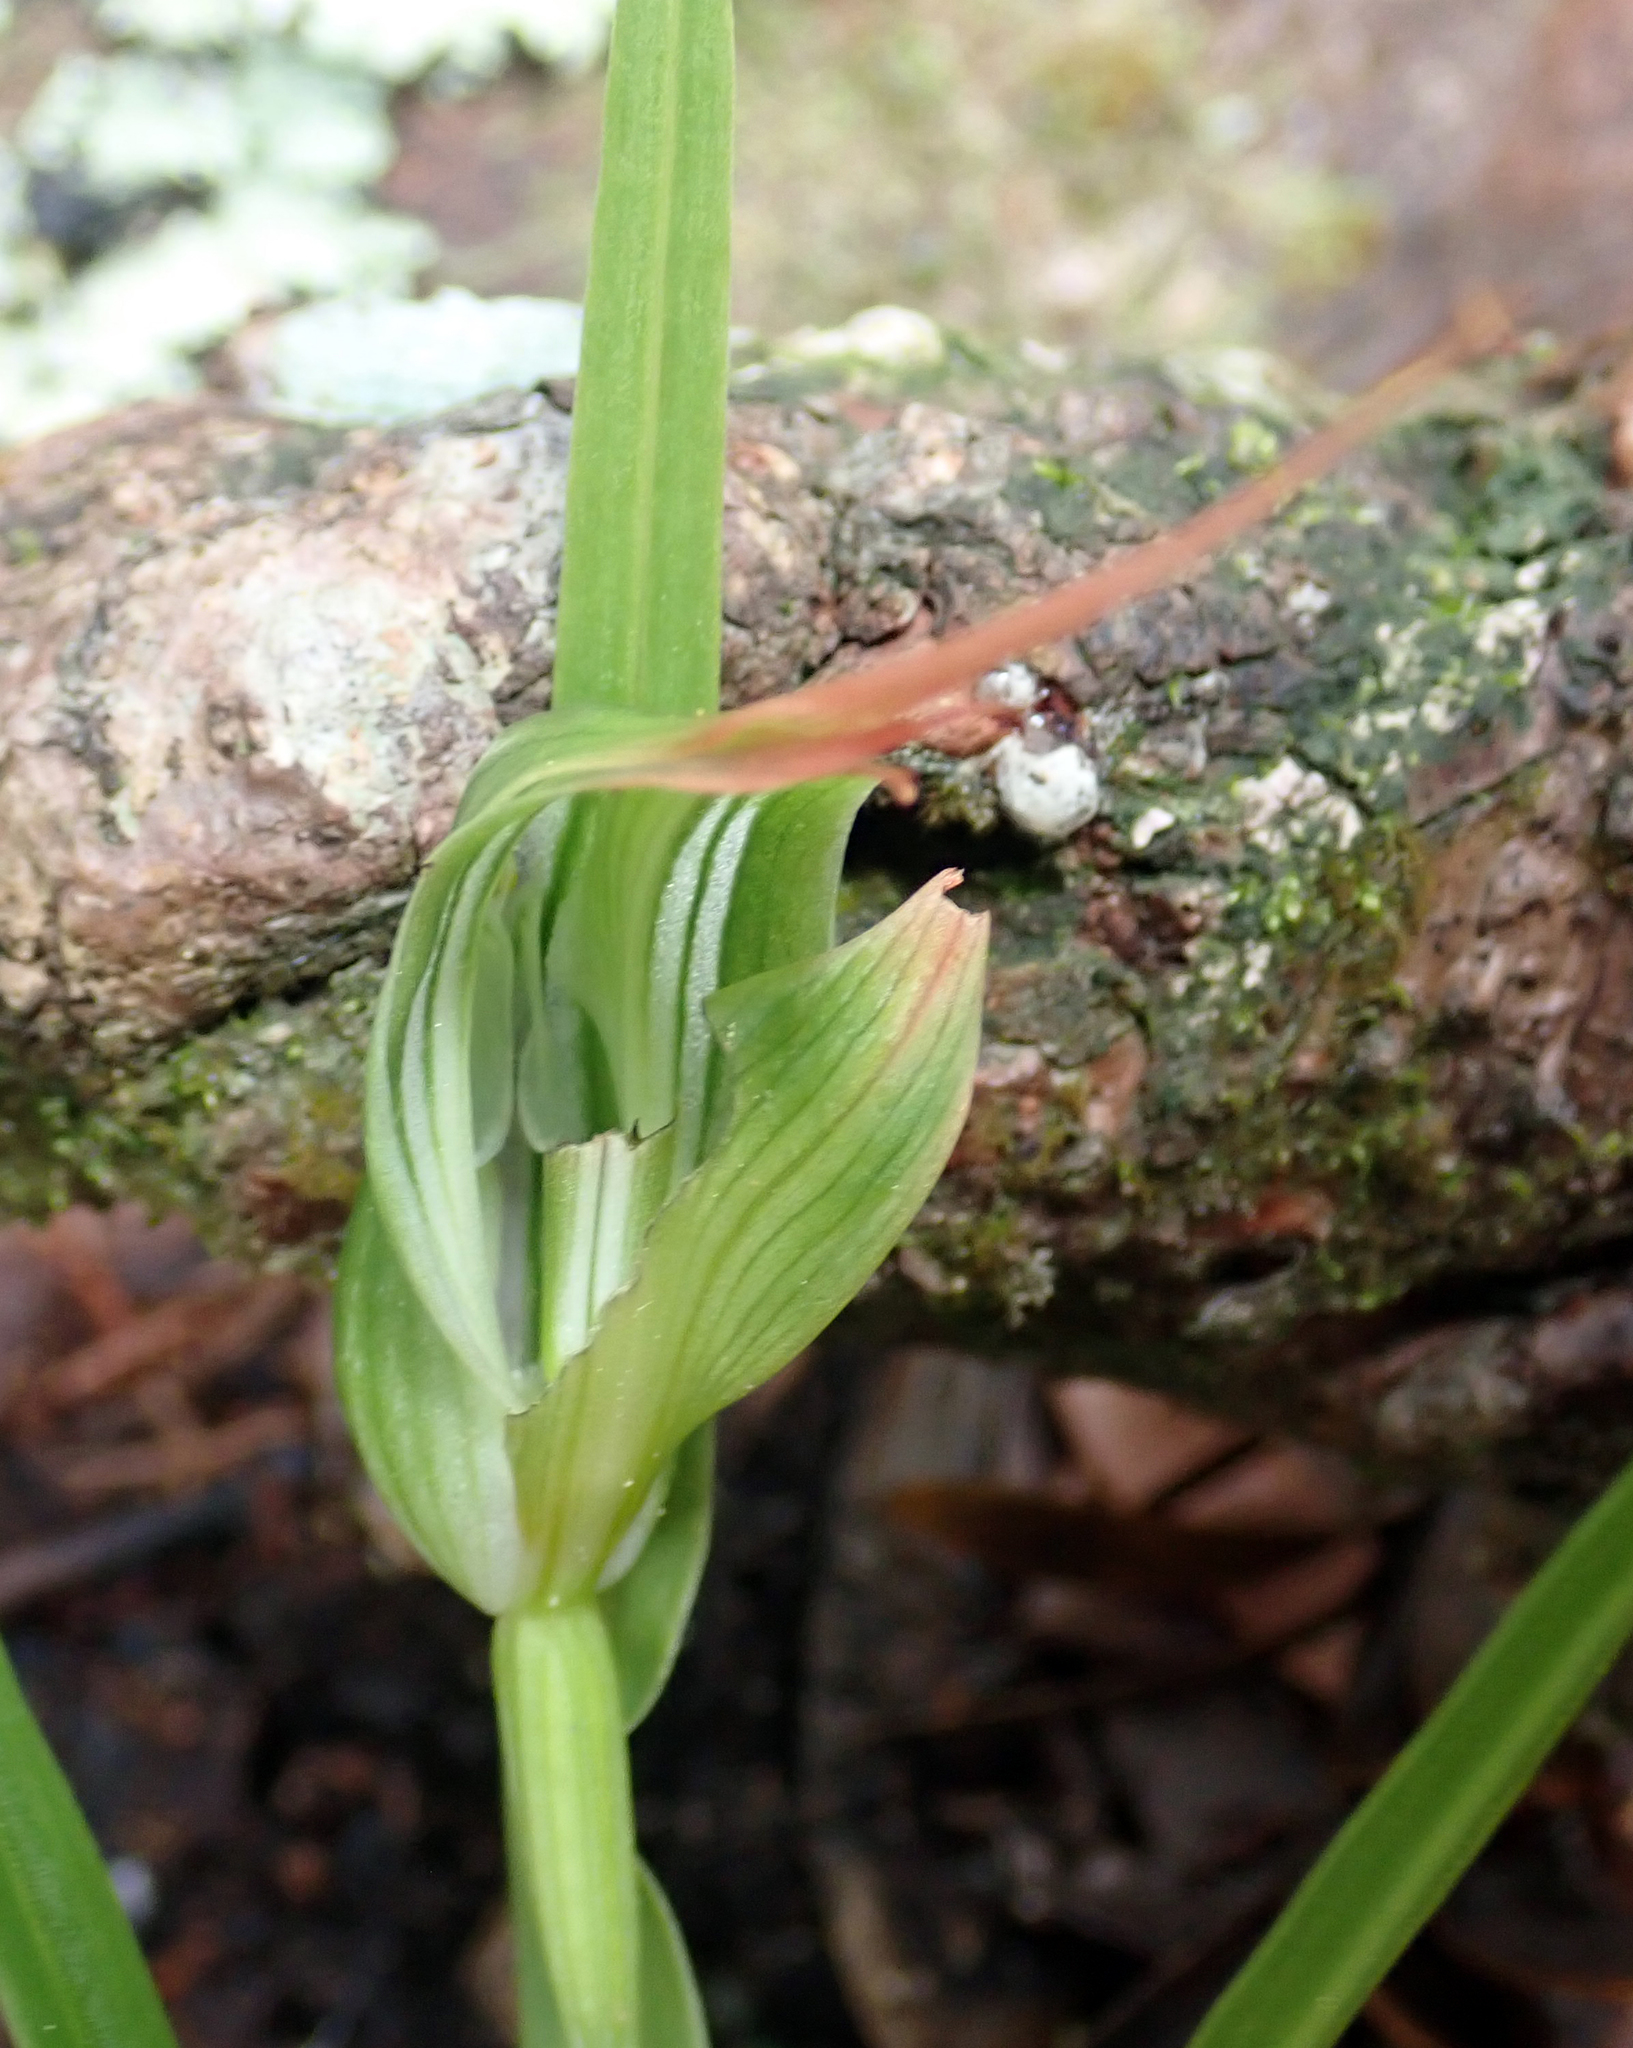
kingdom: Plantae
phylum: Tracheophyta
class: Liliopsida
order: Asparagales
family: Orchidaceae
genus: Pterostylis
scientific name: Pterostylis banksii
